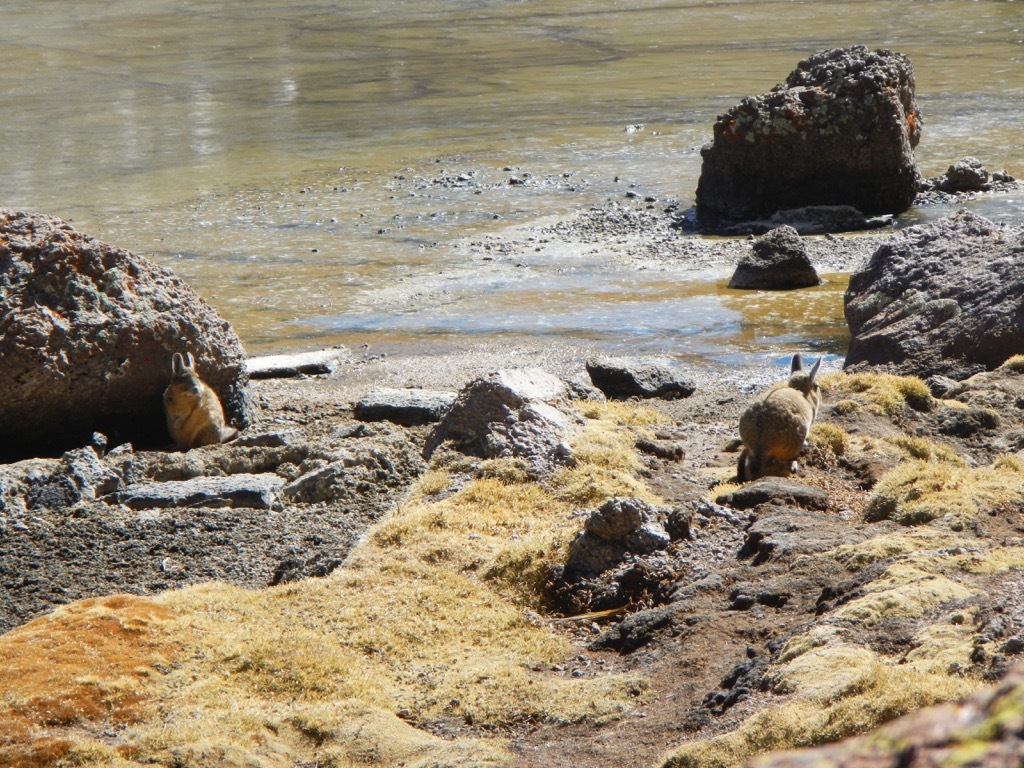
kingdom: Animalia
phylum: Chordata
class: Mammalia
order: Rodentia
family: Chinchillidae
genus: Lagidium
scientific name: Lagidium viscacia
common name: Southern viscacha
